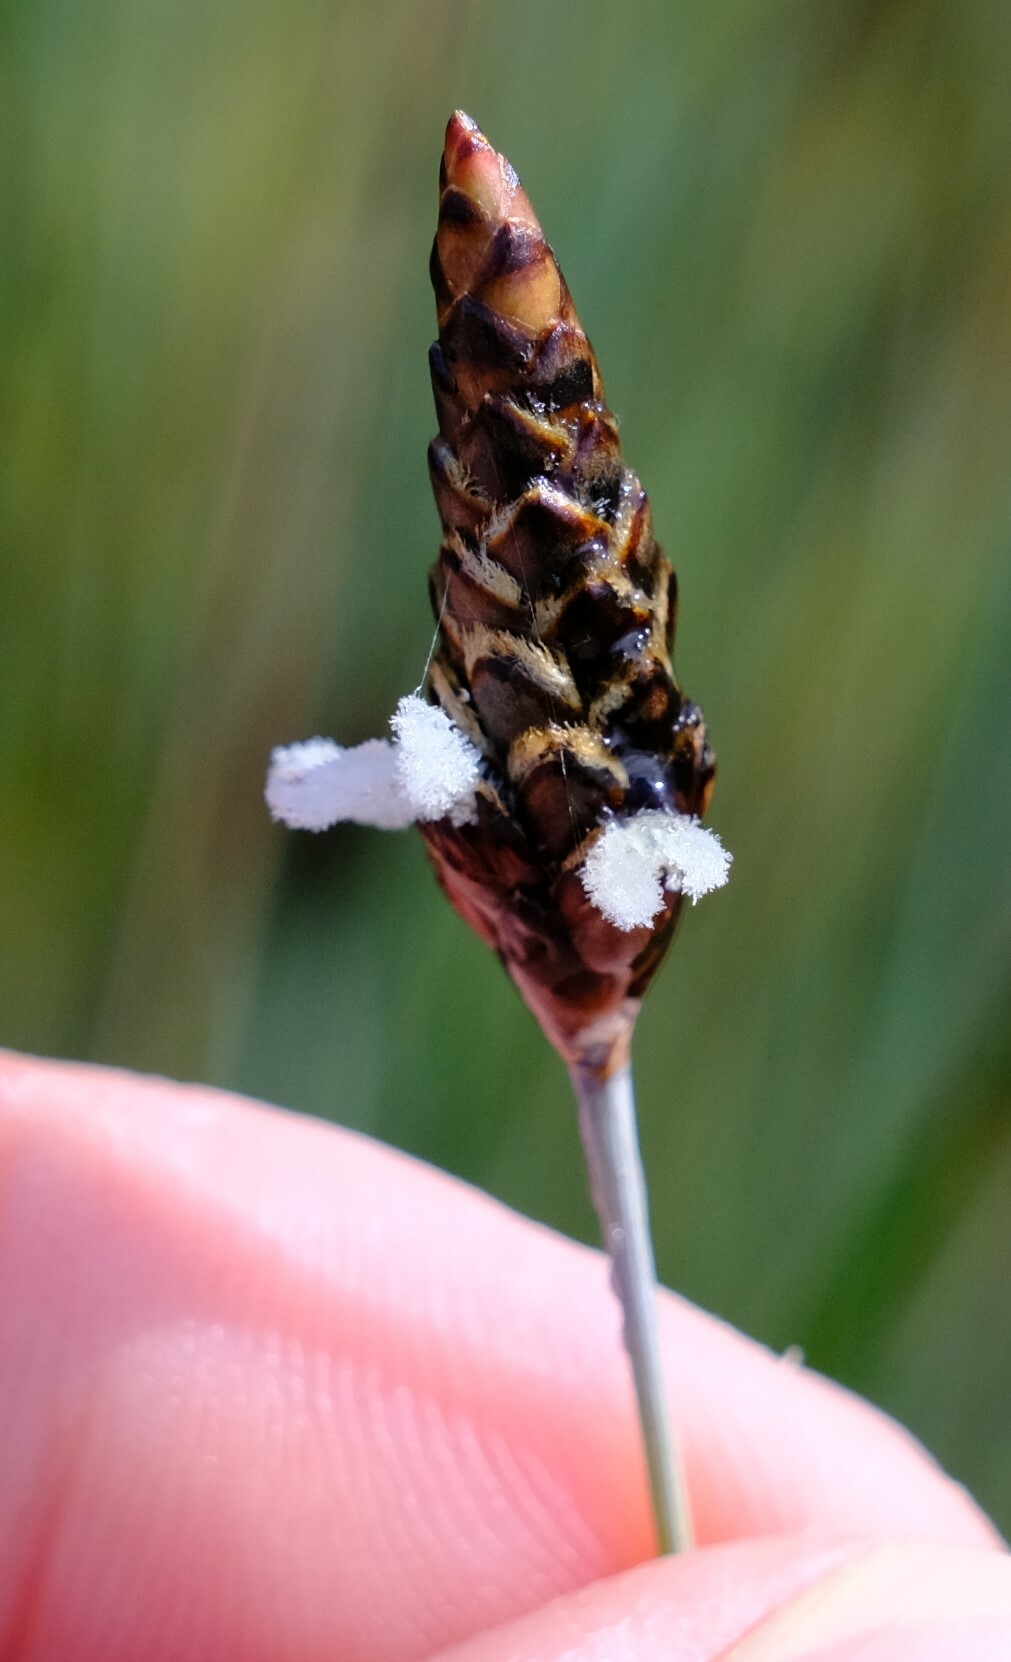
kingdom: Plantae
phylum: Tracheophyta
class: Liliopsida
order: Poales
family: Ecdeiocoleaceae
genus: Ecdeiocolea
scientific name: Ecdeiocolea monostachya
